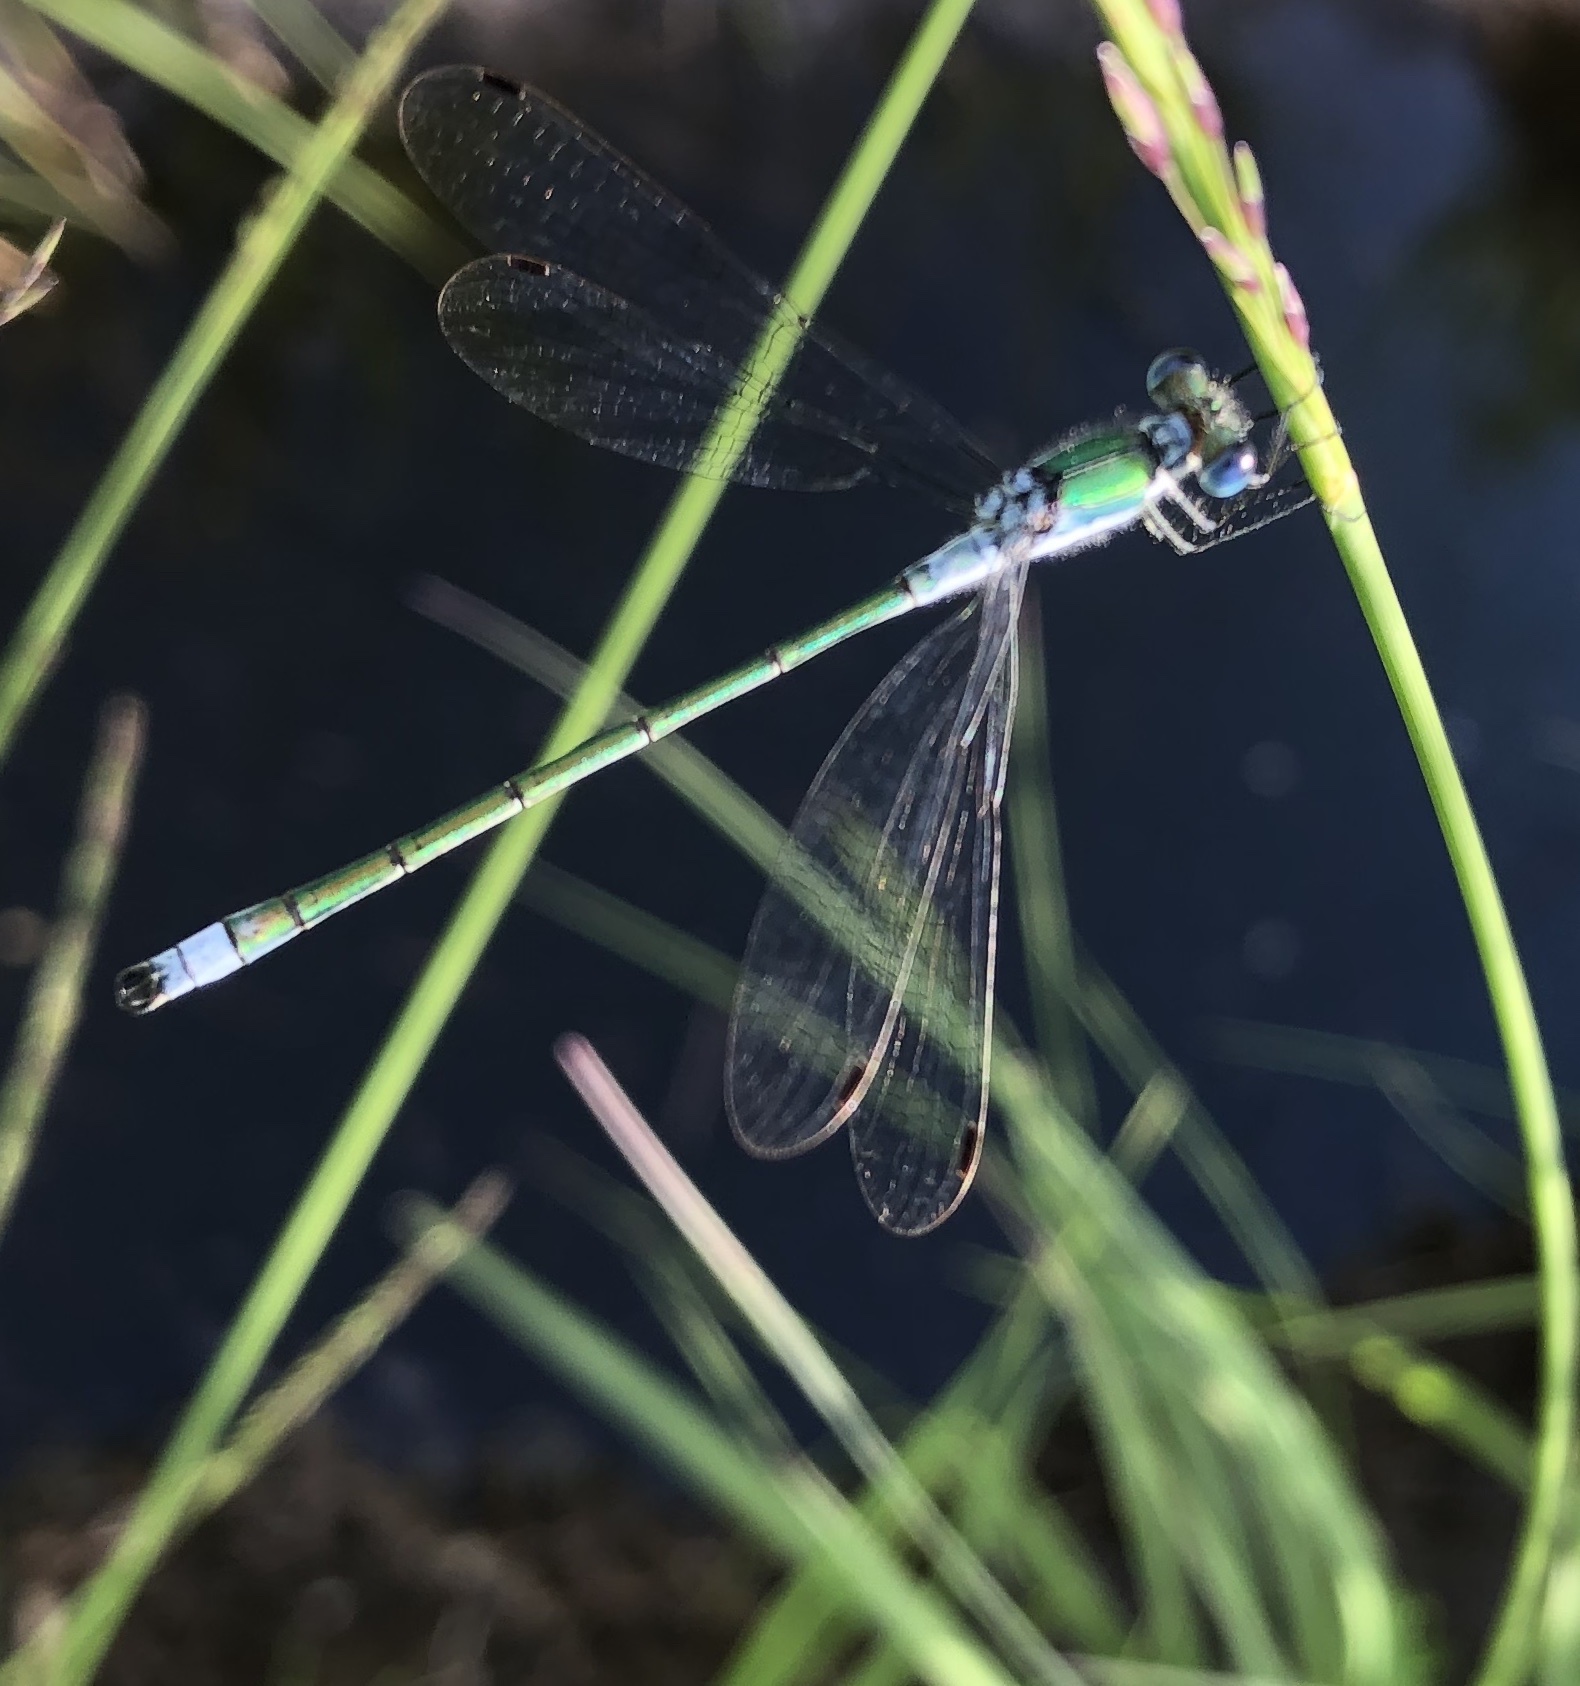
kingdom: Animalia
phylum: Arthropoda
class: Insecta
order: Odonata
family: Lestidae
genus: Lestes
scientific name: Lestes sponsa
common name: Common spreadwing
